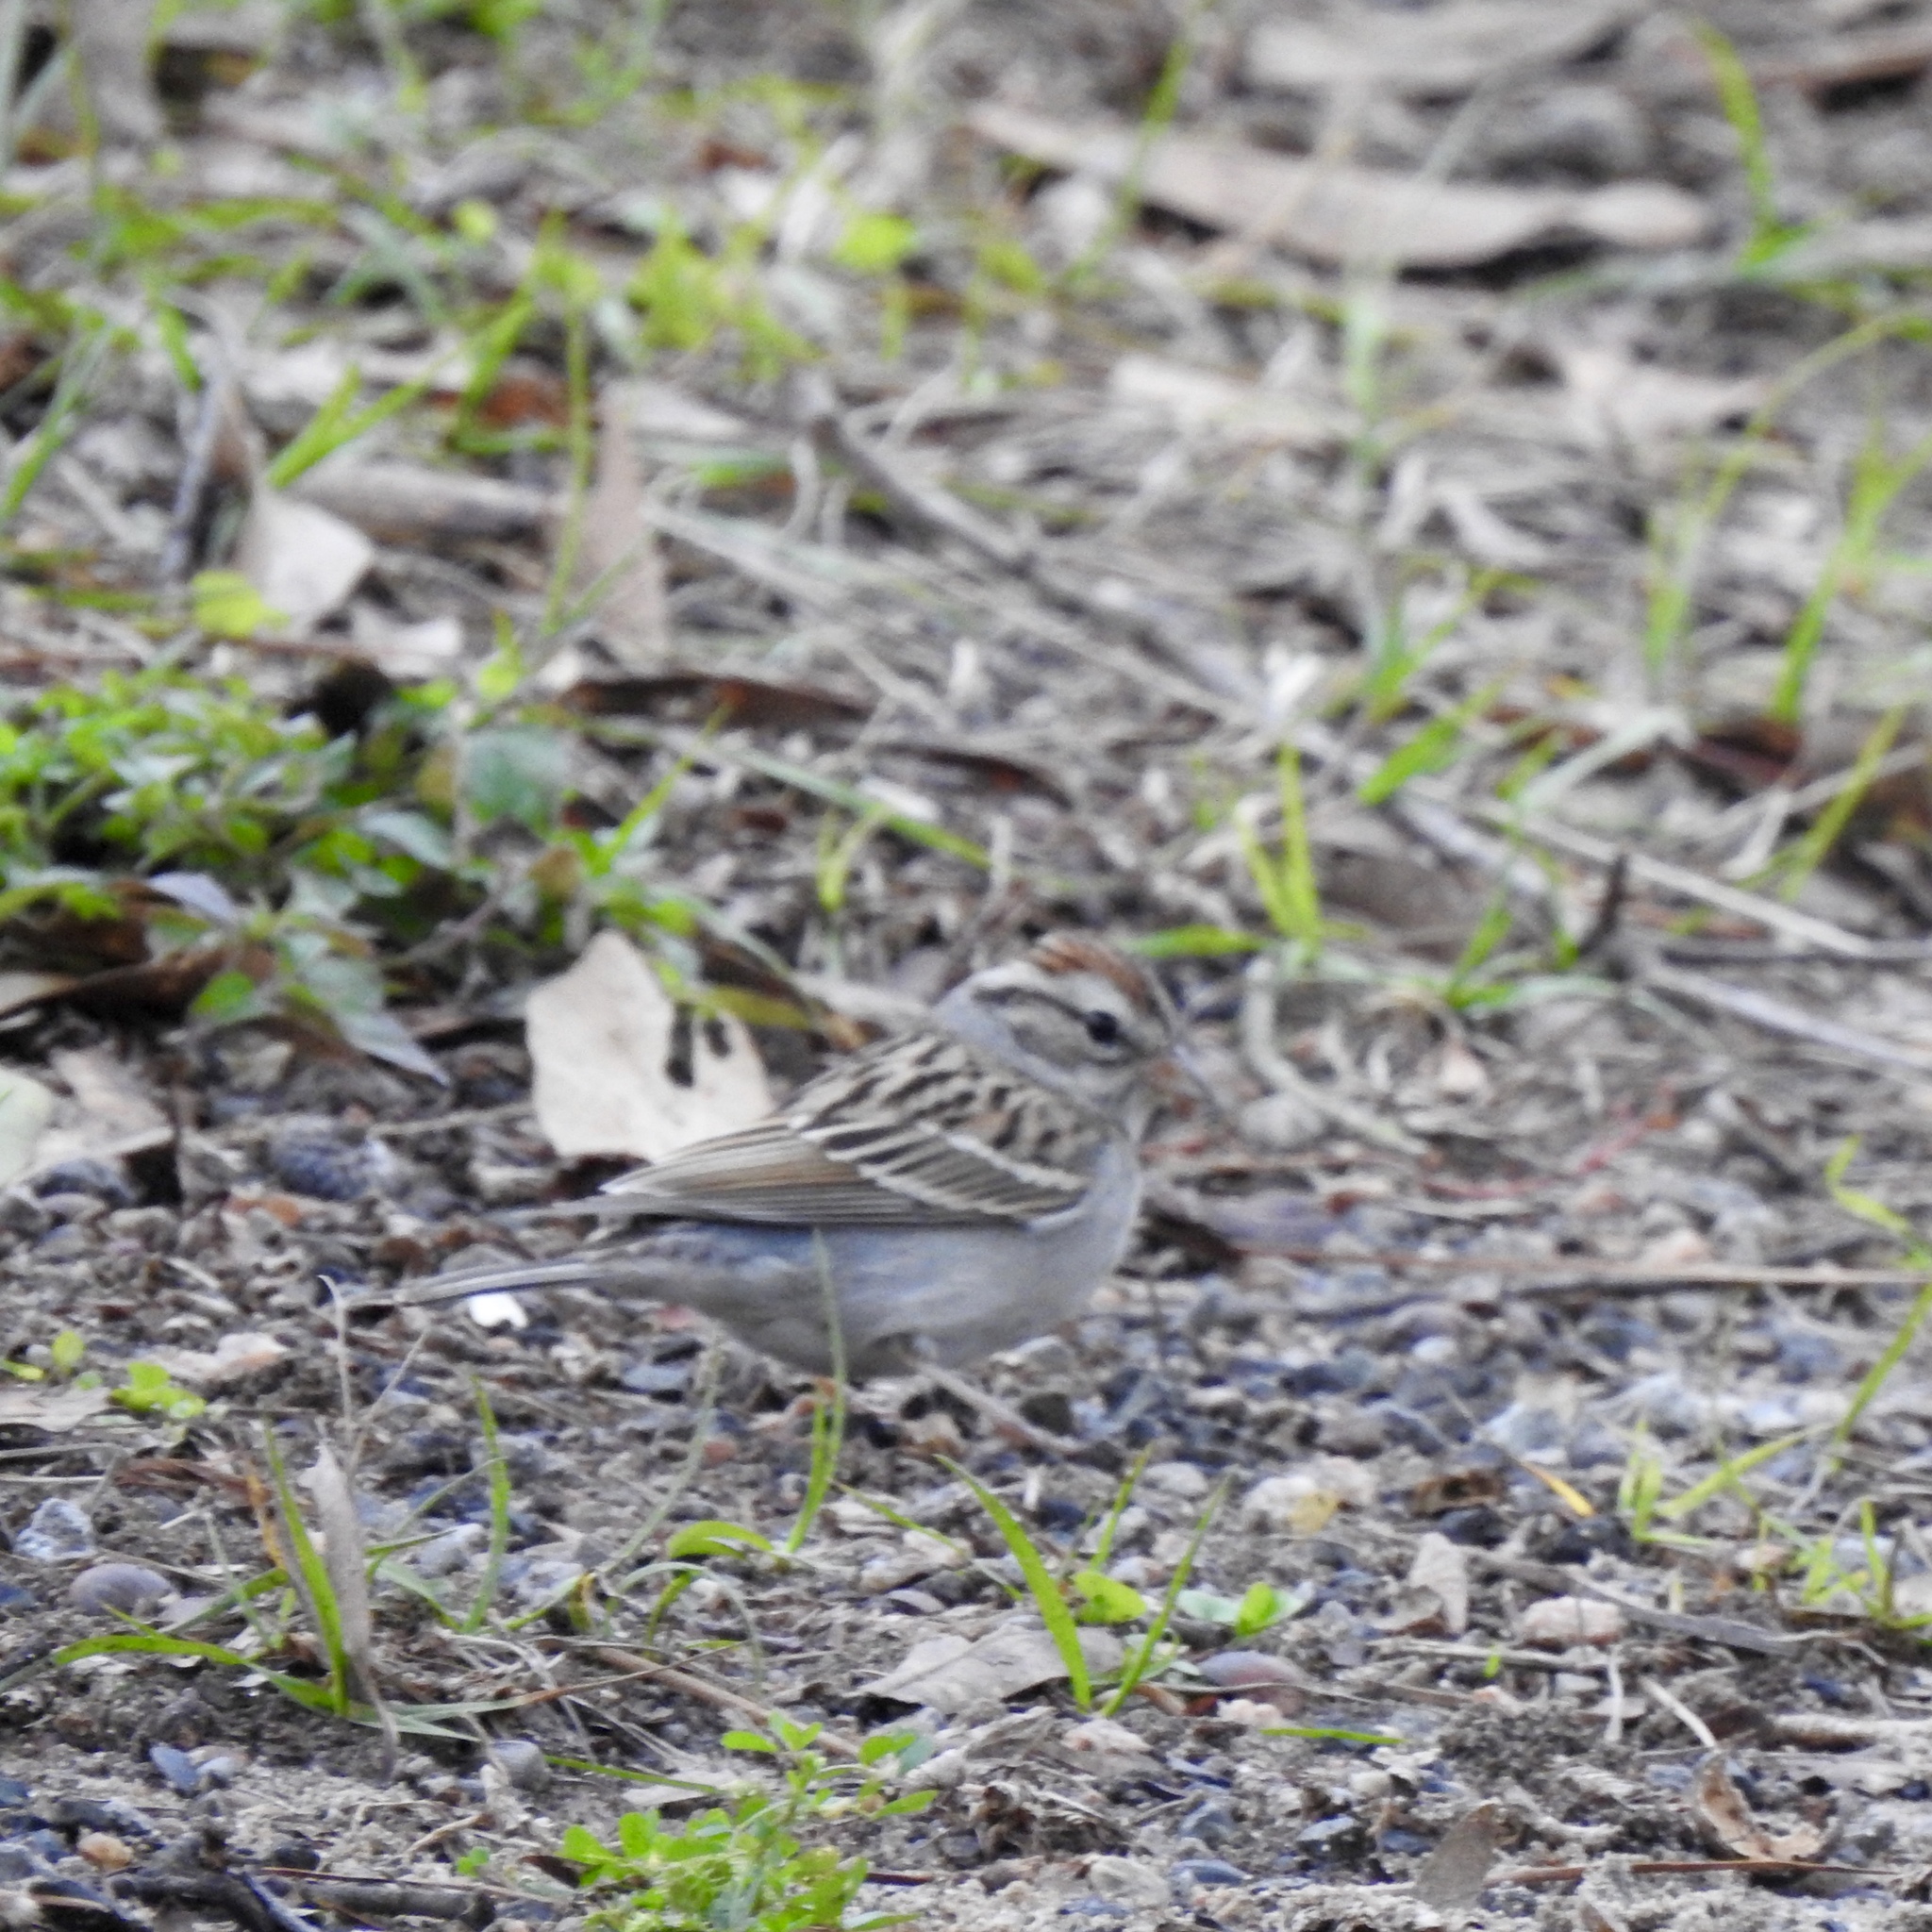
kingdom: Animalia
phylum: Chordata
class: Aves
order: Passeriformes
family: Passerellidae
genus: Spizella
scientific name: Spizella passerina
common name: Chipping sparrow
